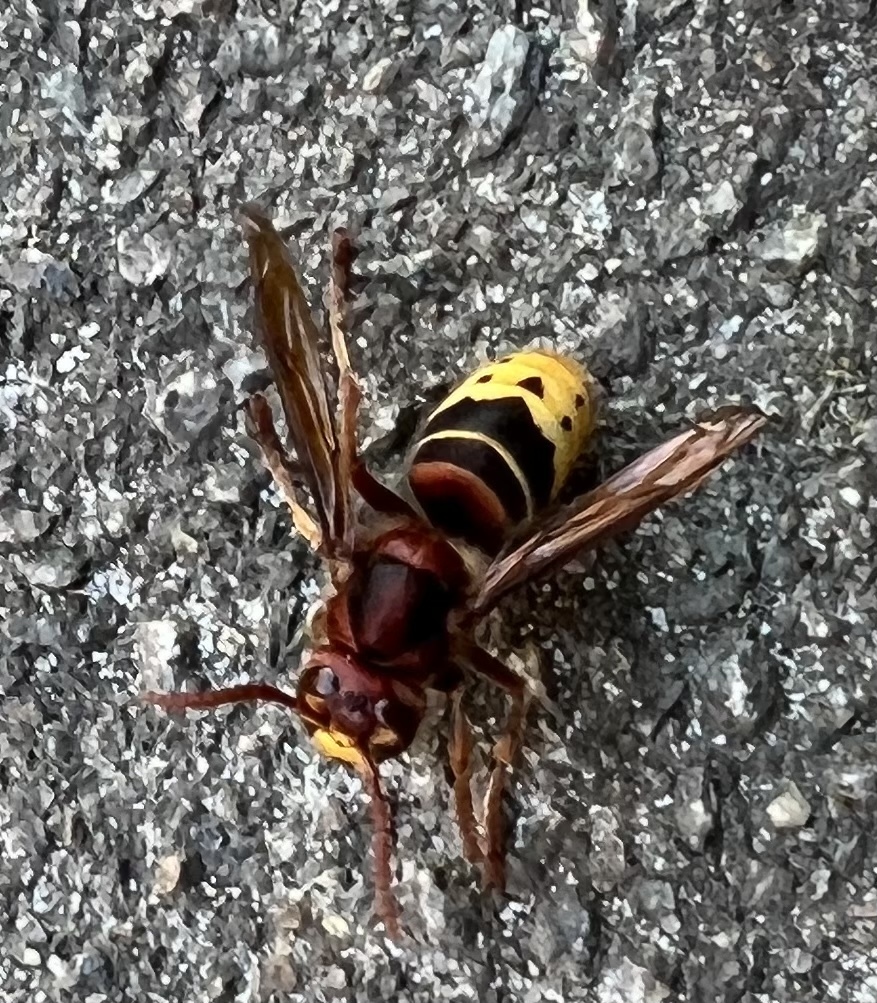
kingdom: Animalia
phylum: Arthropoda
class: Insecta
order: Hymenoptera
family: Vespidae
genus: Vespa
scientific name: Vespa crabro
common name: Hornet
